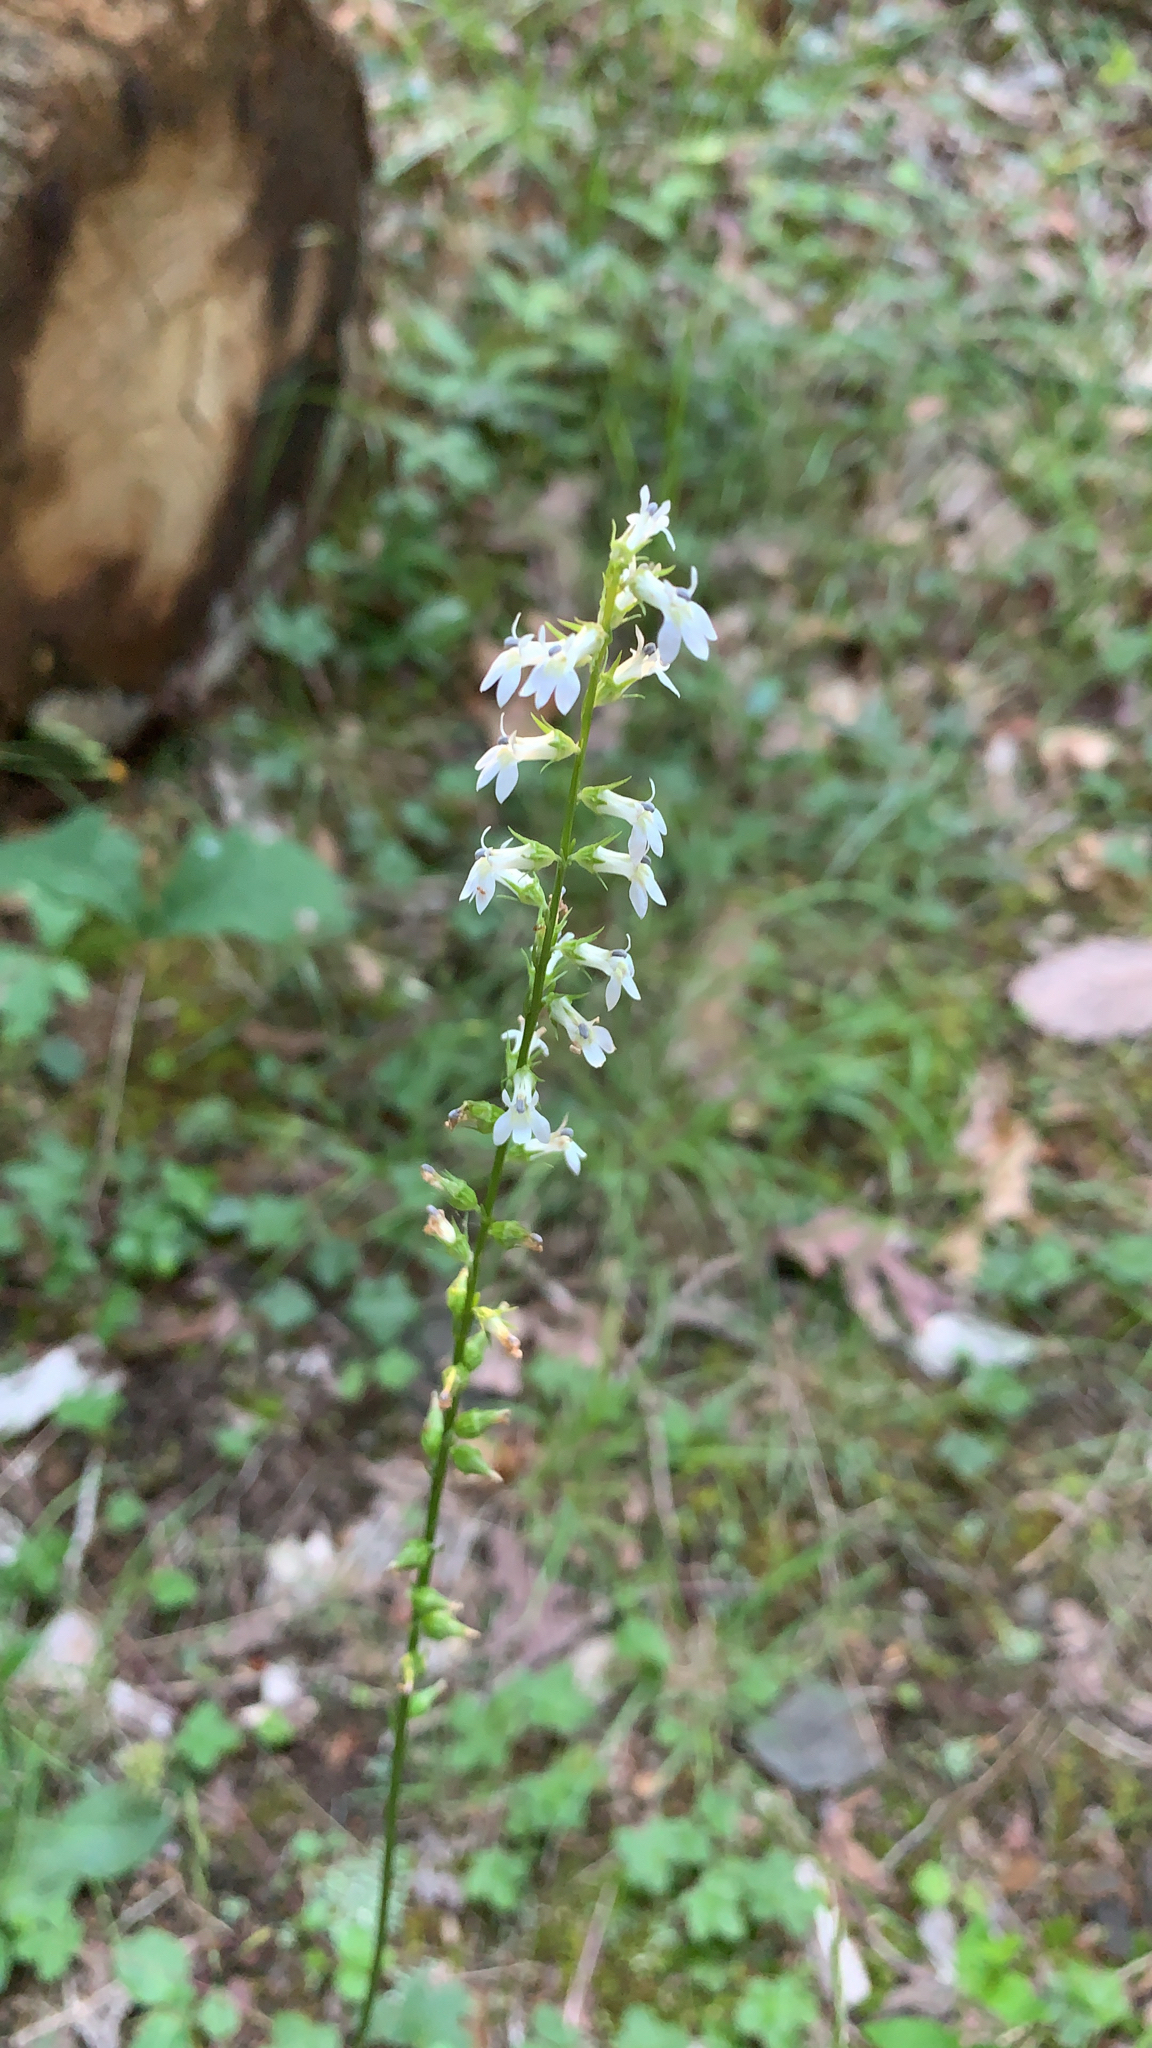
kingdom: Plantae
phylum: Tracheophyta
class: Magnoliopsida
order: Asterales
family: Campanulaceae
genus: Lobelia
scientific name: Lobelia spicata
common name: Pale-spike lobelia
